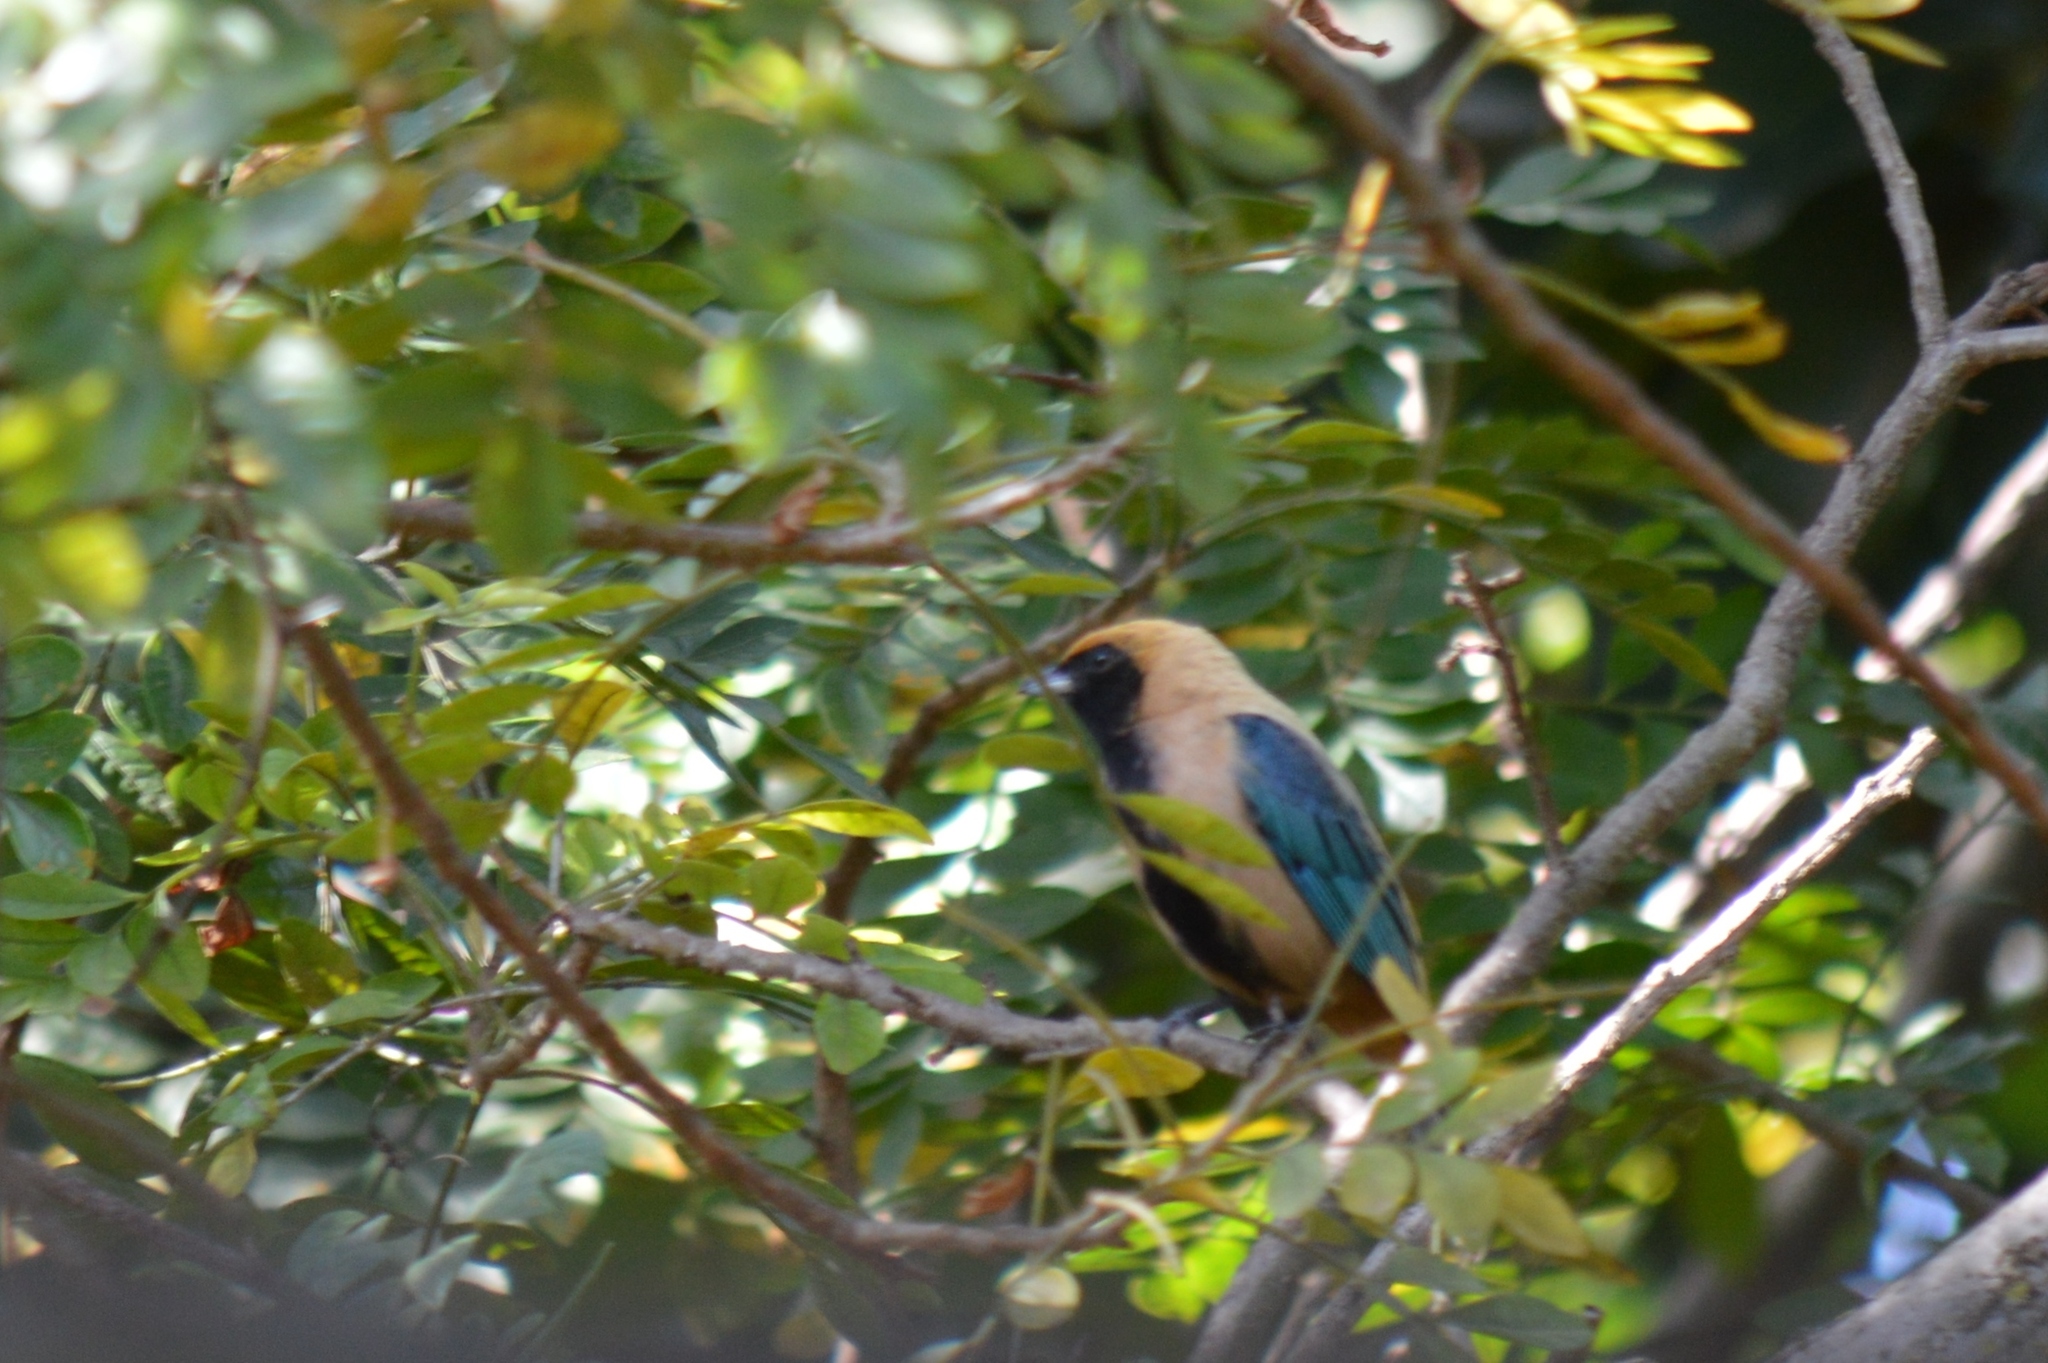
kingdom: Animalia
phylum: Chordata
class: Aves
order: Passeriformes
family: Thraupidae
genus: Stilpnia
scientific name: Stilpnia cayana
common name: Burnished-buff tanager
